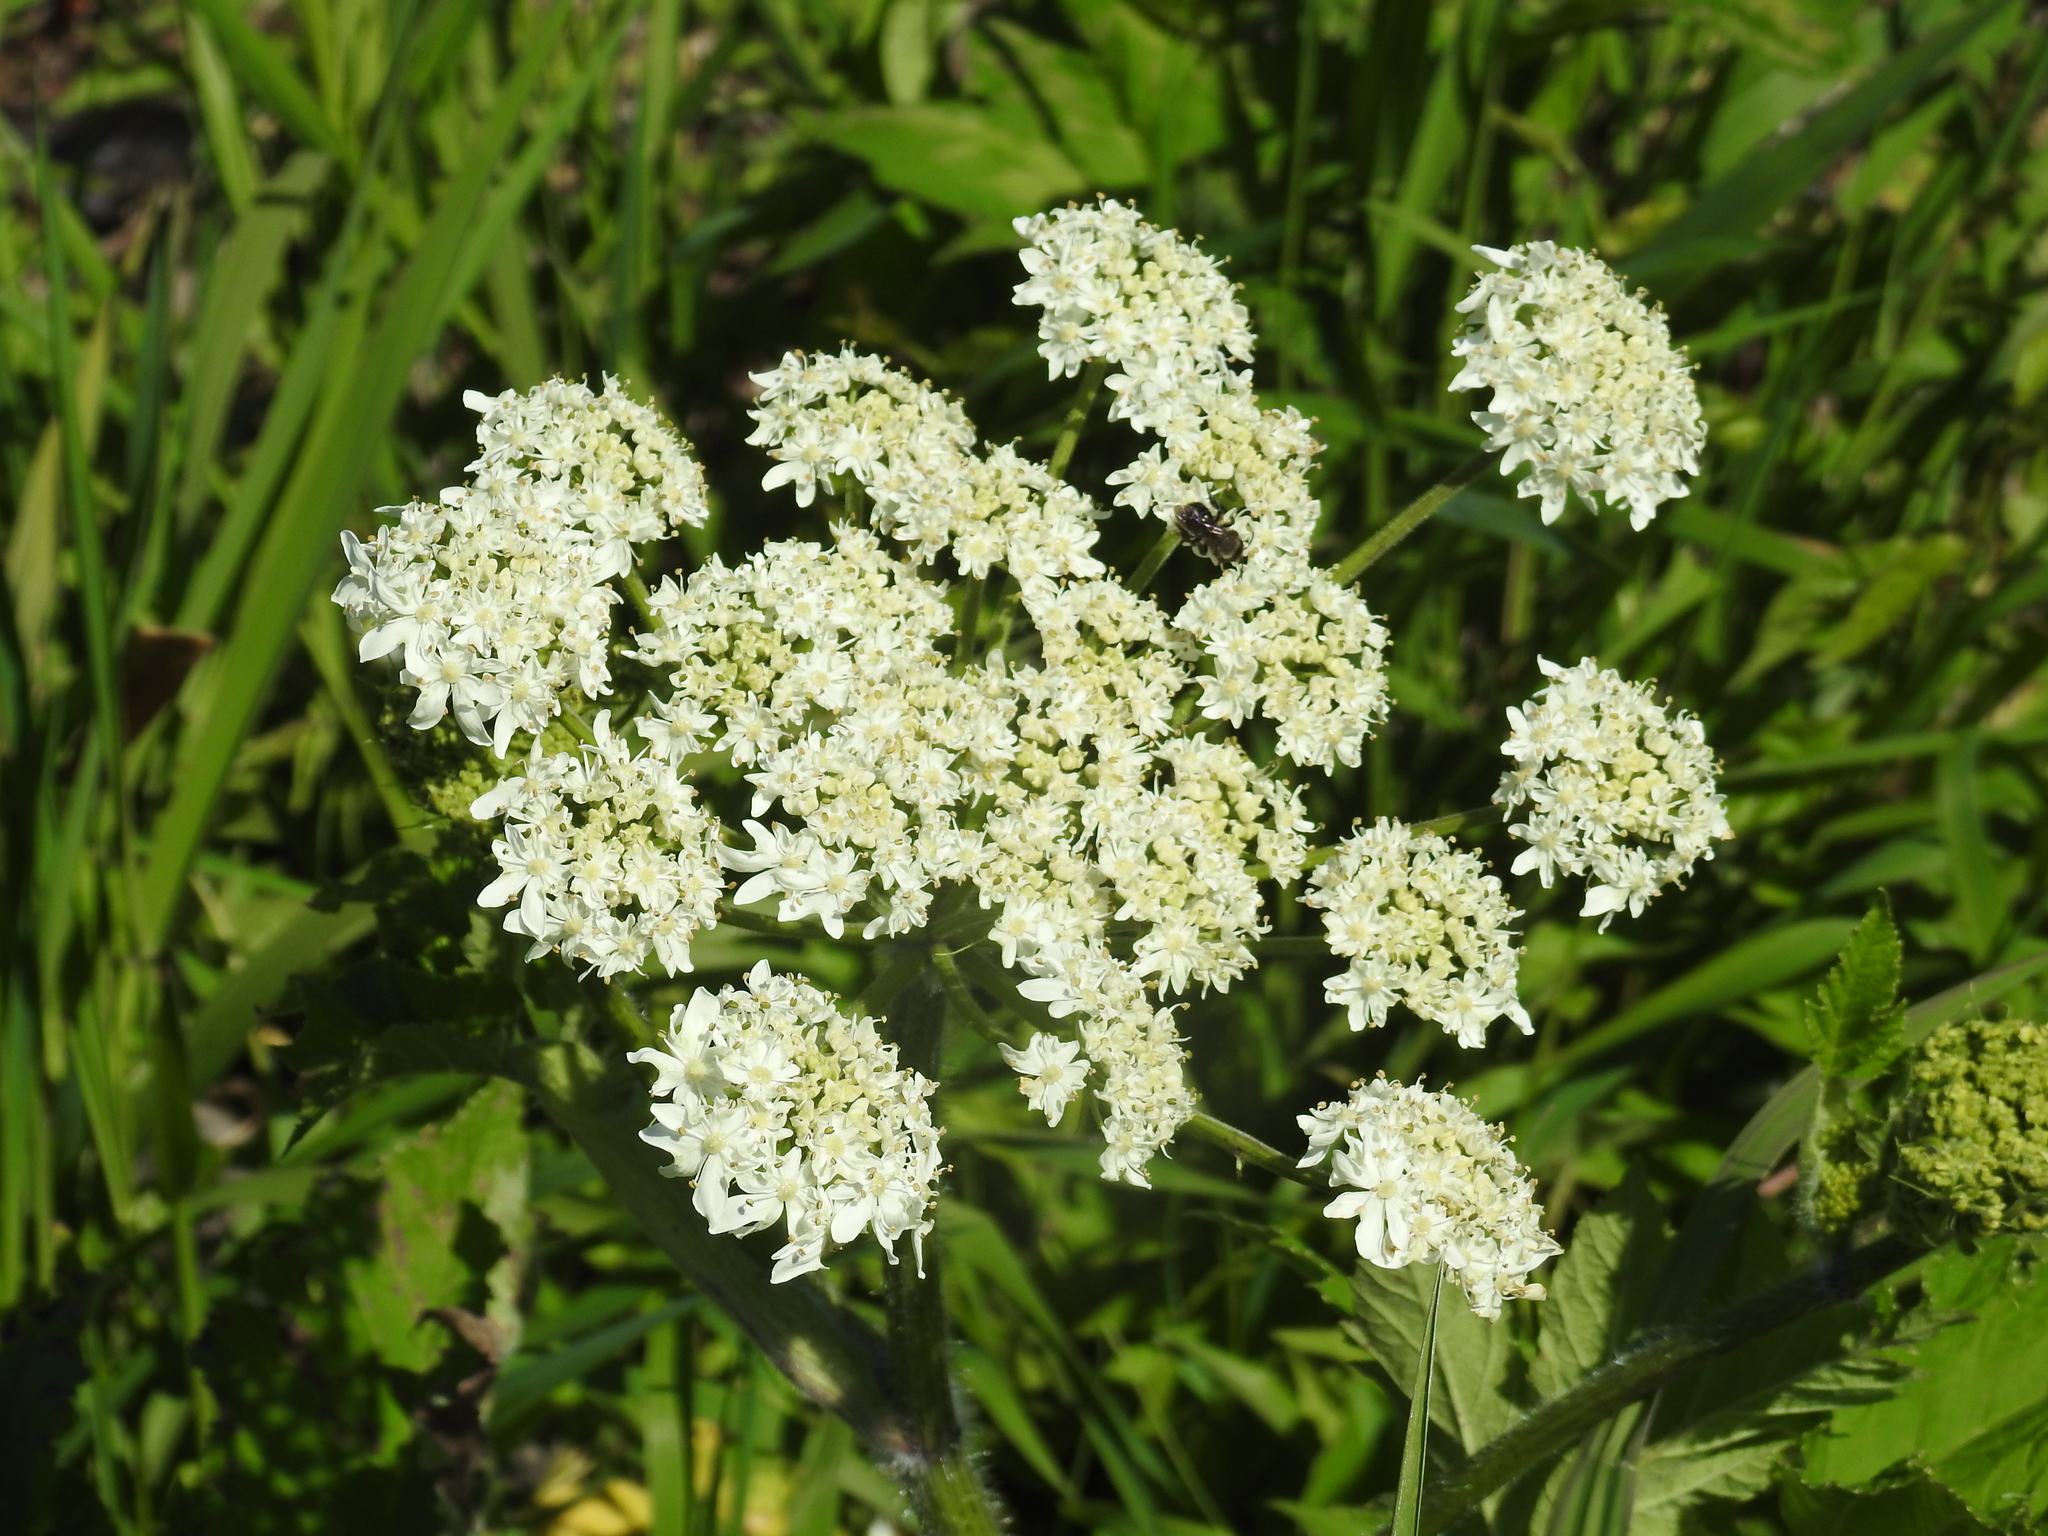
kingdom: Plantae
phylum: Tracheophyta
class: Magnoliopsida
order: Apiales
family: Apiaceae
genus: Heracleum
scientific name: Heracleum maximum
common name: American cow parsnip
